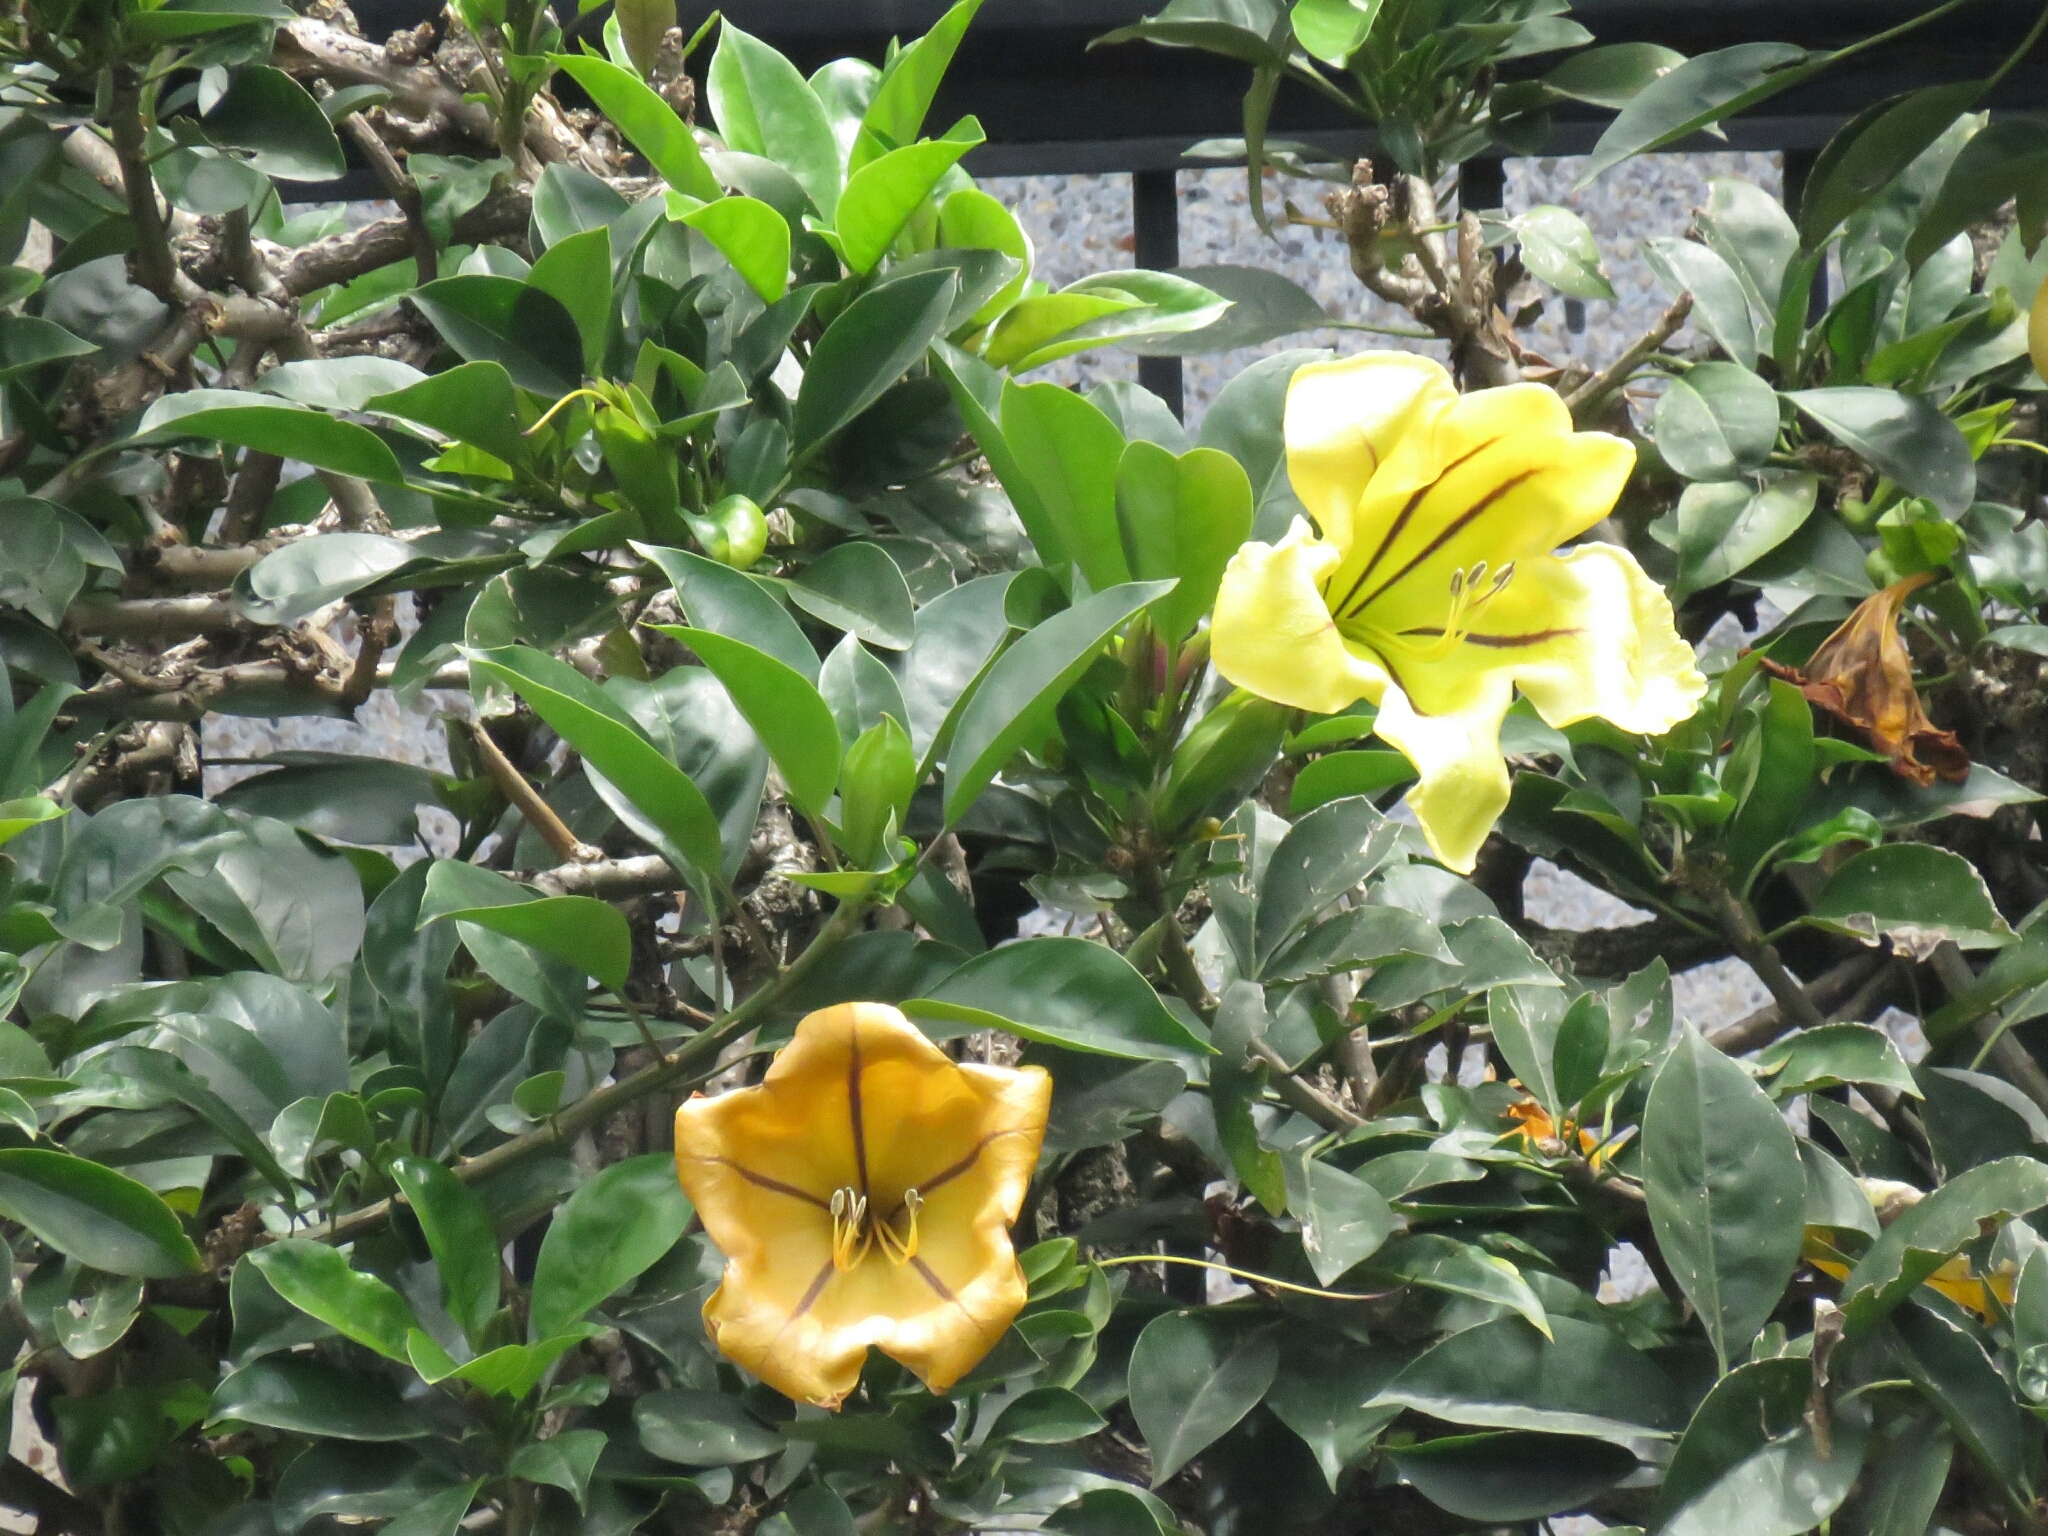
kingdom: Plantae
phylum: Tracheophyta
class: Magnoliopsida
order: Solanales
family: Solanaceae
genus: Solandra
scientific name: Solandra maxima
